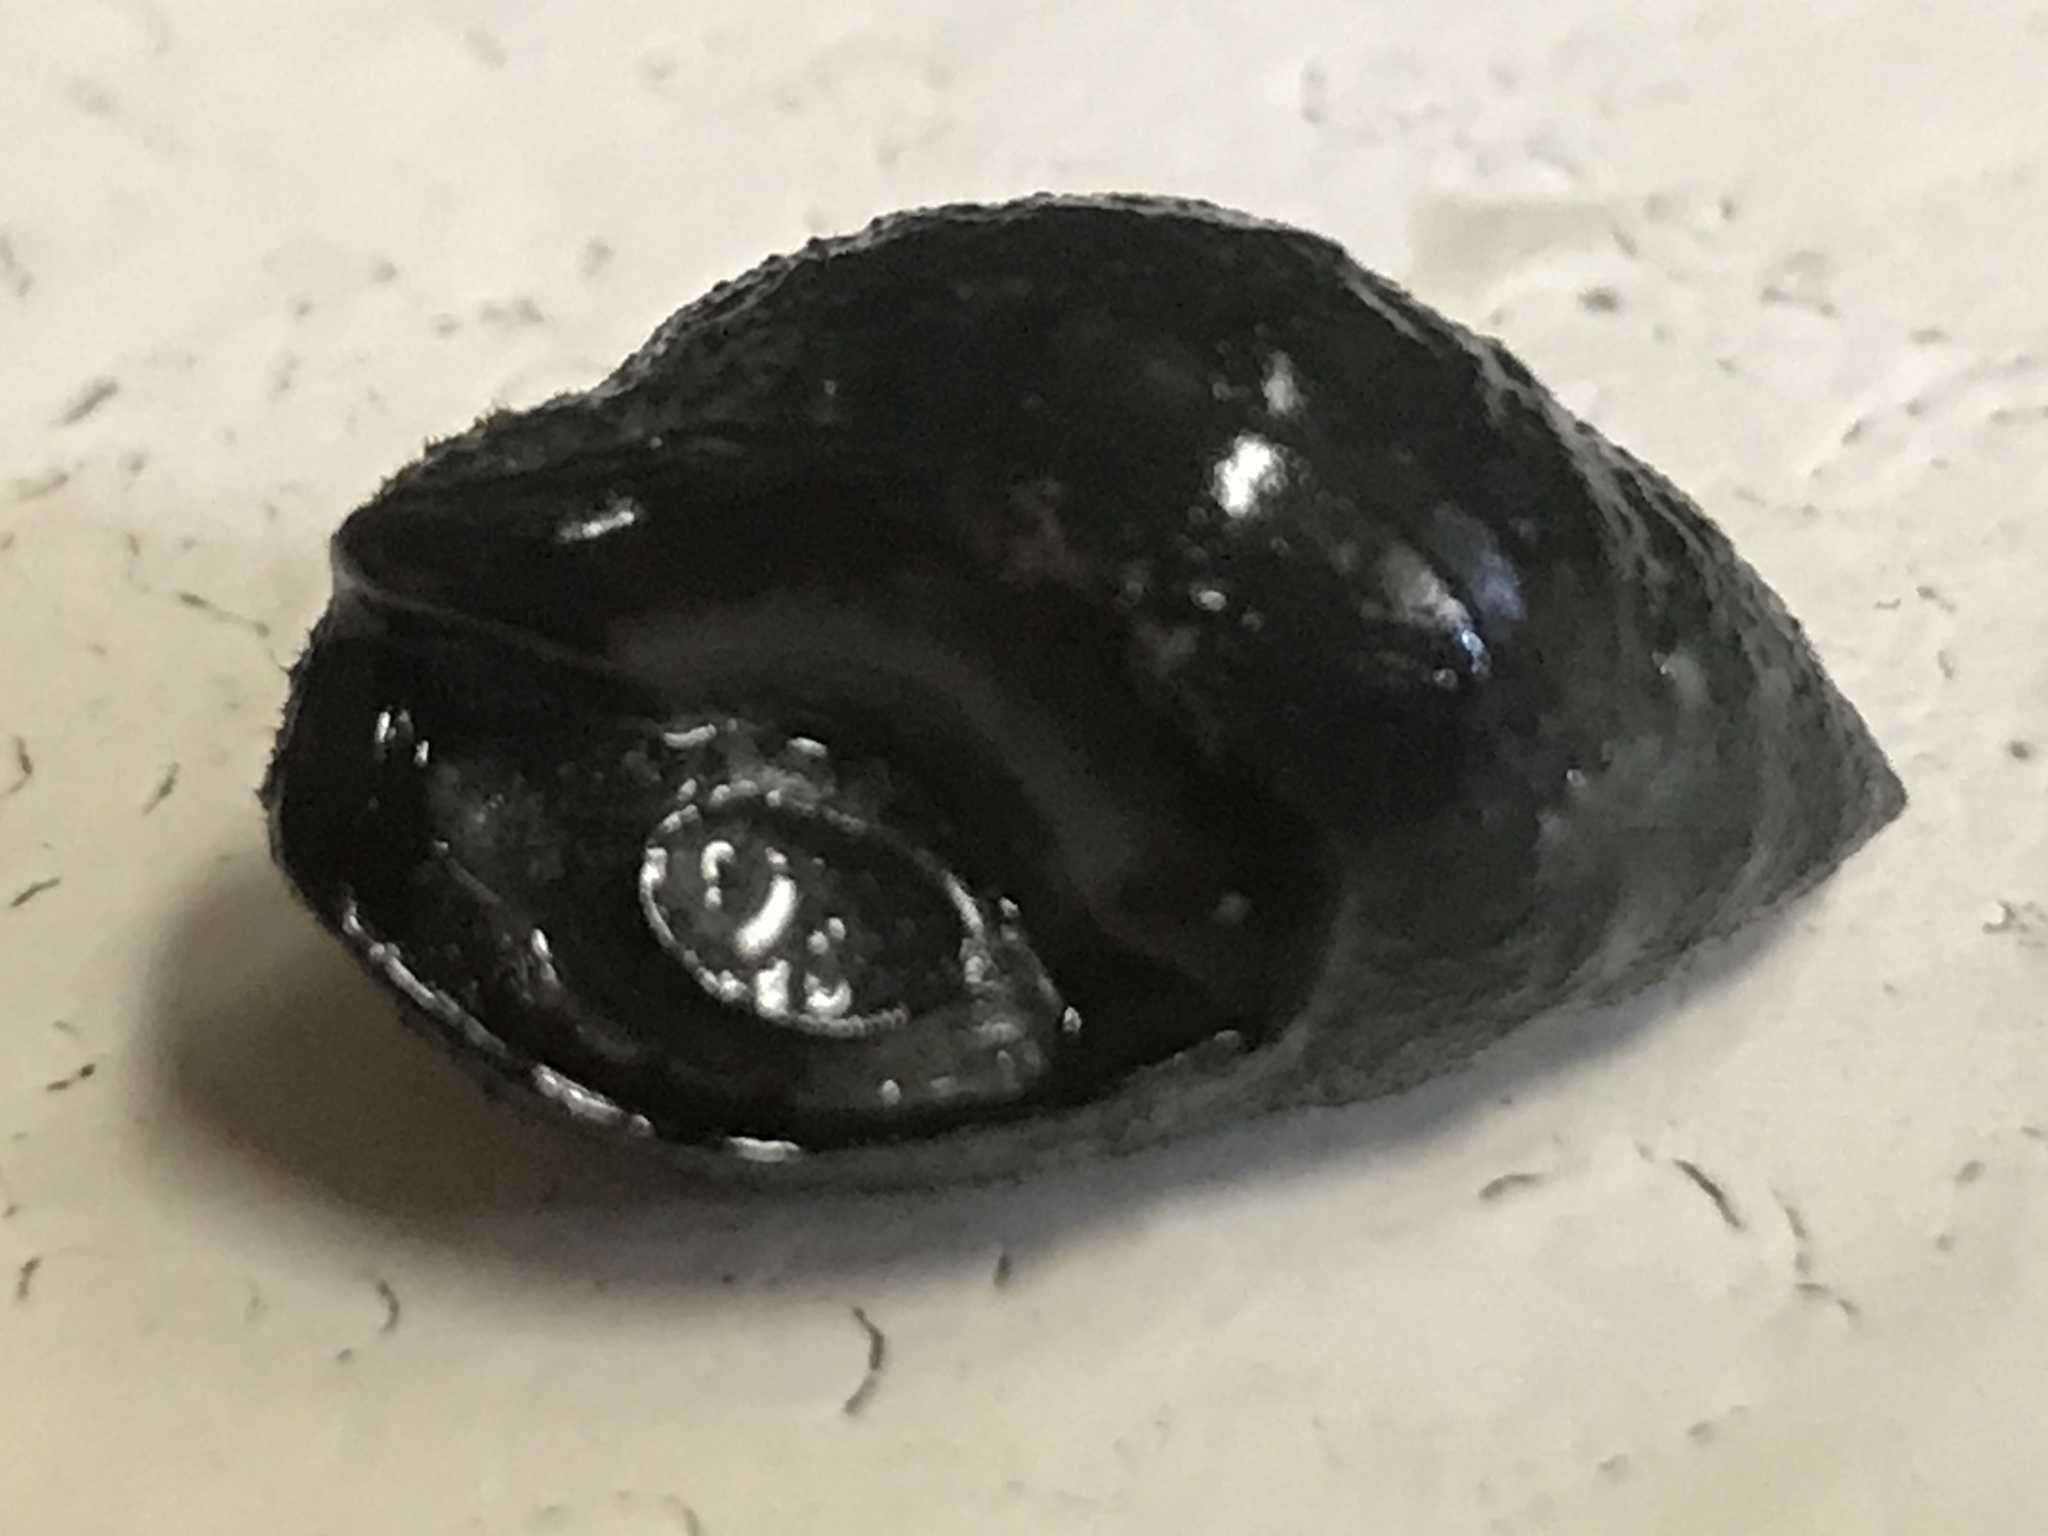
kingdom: Animalia
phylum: Mollusca
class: Gastropoda
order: Neogastropoda
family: Nassariidae
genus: Ilyanassa
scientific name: Ilyanassa obsoleta
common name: Eastern mudsnail
